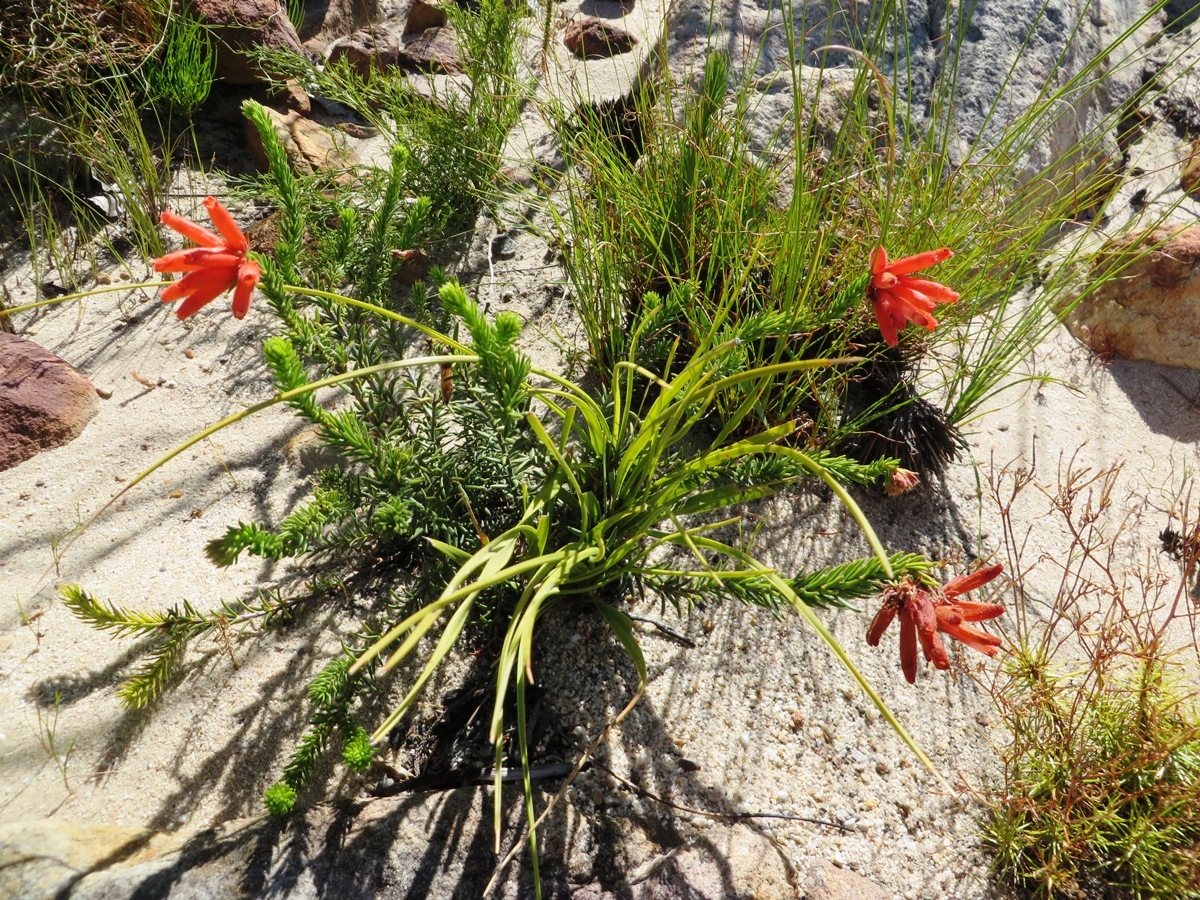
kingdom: Plantae
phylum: Tracheophyta
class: Magnoliopsida
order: Ericales
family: Ericaceae
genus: Erica
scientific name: Erica cerinthoides
